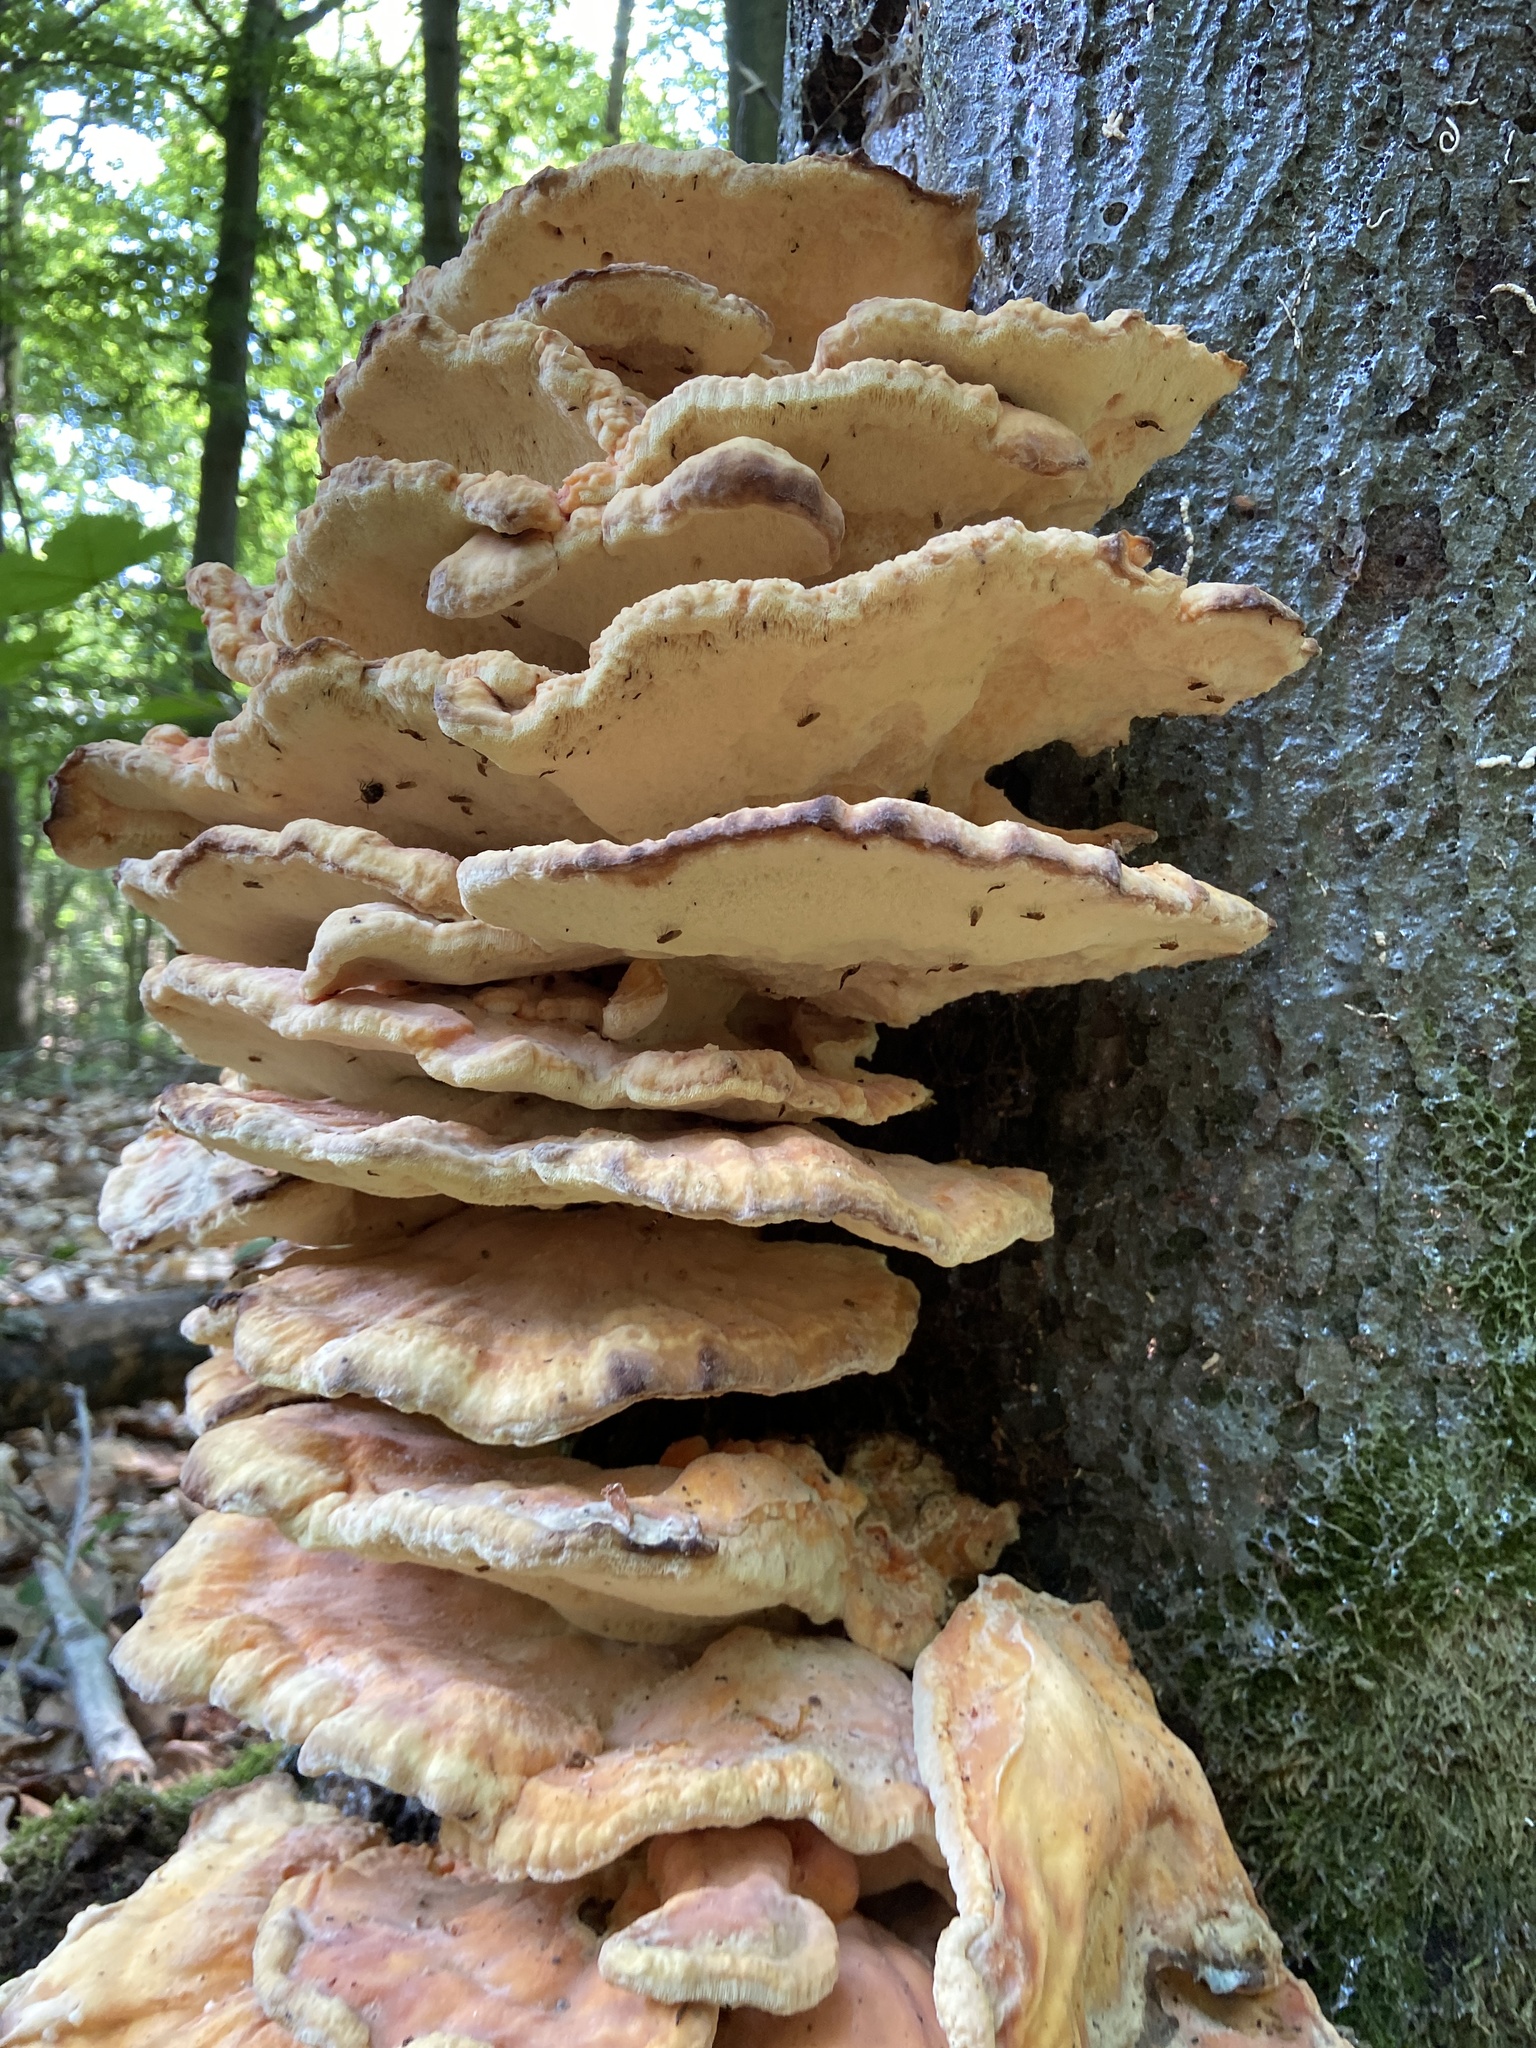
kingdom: Fungi
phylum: Basidiomycota
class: Agaricomycetes
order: Polyporales
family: Laetiporaceae
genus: Laetiporus
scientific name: Laetiporus sulphureus
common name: Chicken of the woods
